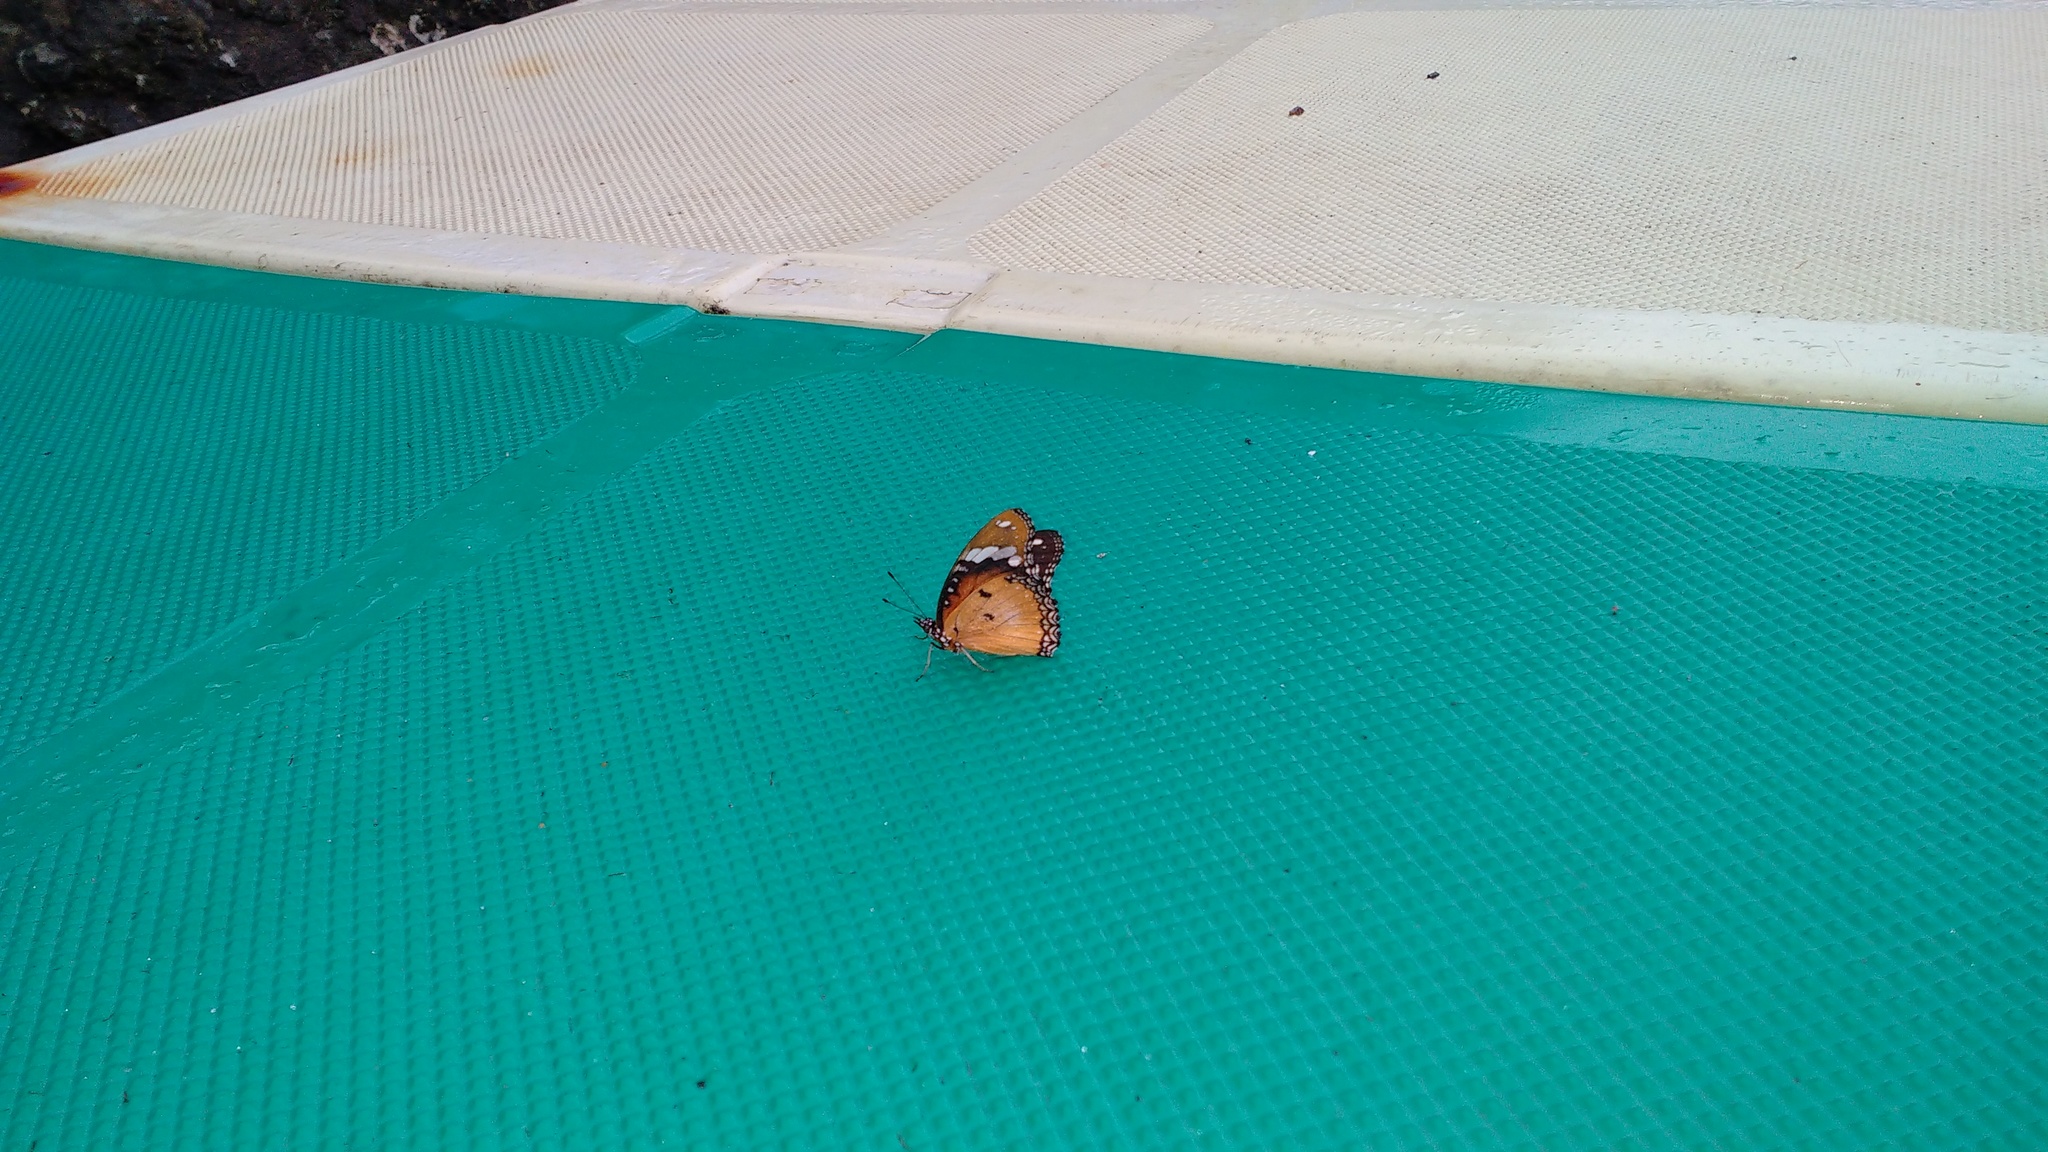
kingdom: Animalia
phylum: Arthropoda
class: Insecta
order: Lepidoptera
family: Nymphalidae
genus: Hypolimnas
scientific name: Hypolimnas misippus
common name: False plain tiger
